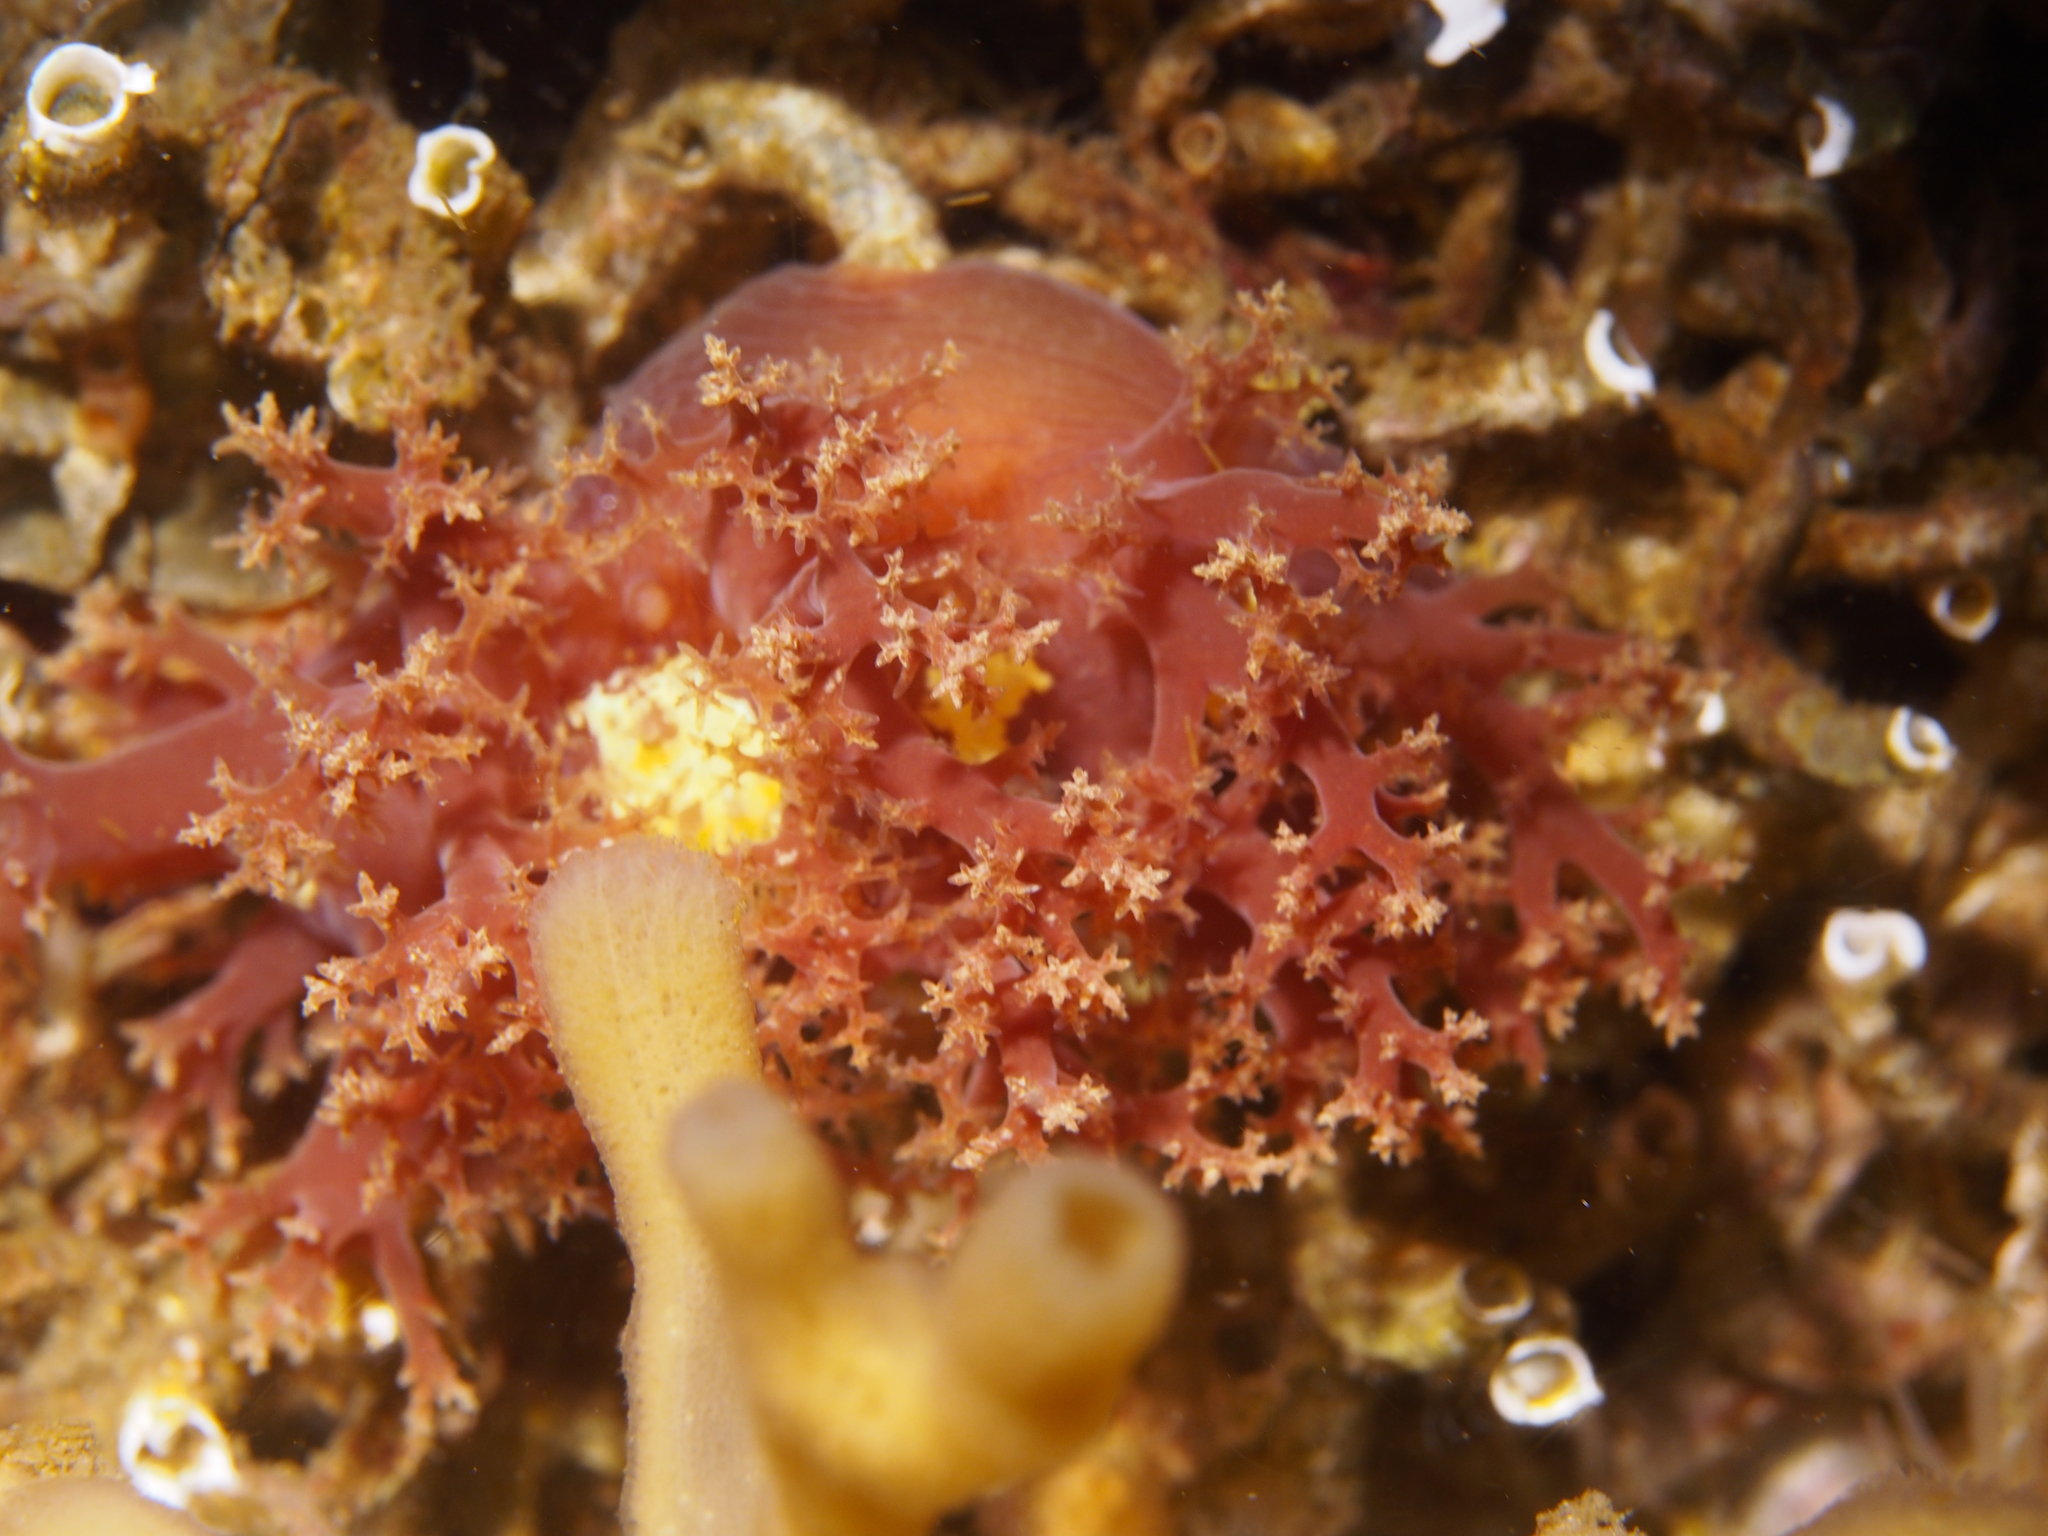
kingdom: Animalia
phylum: Mollusca
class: Gastropoda
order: Nudibranchia
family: Dendronotidae
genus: Dendronotus
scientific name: Dendronotus lacteus
